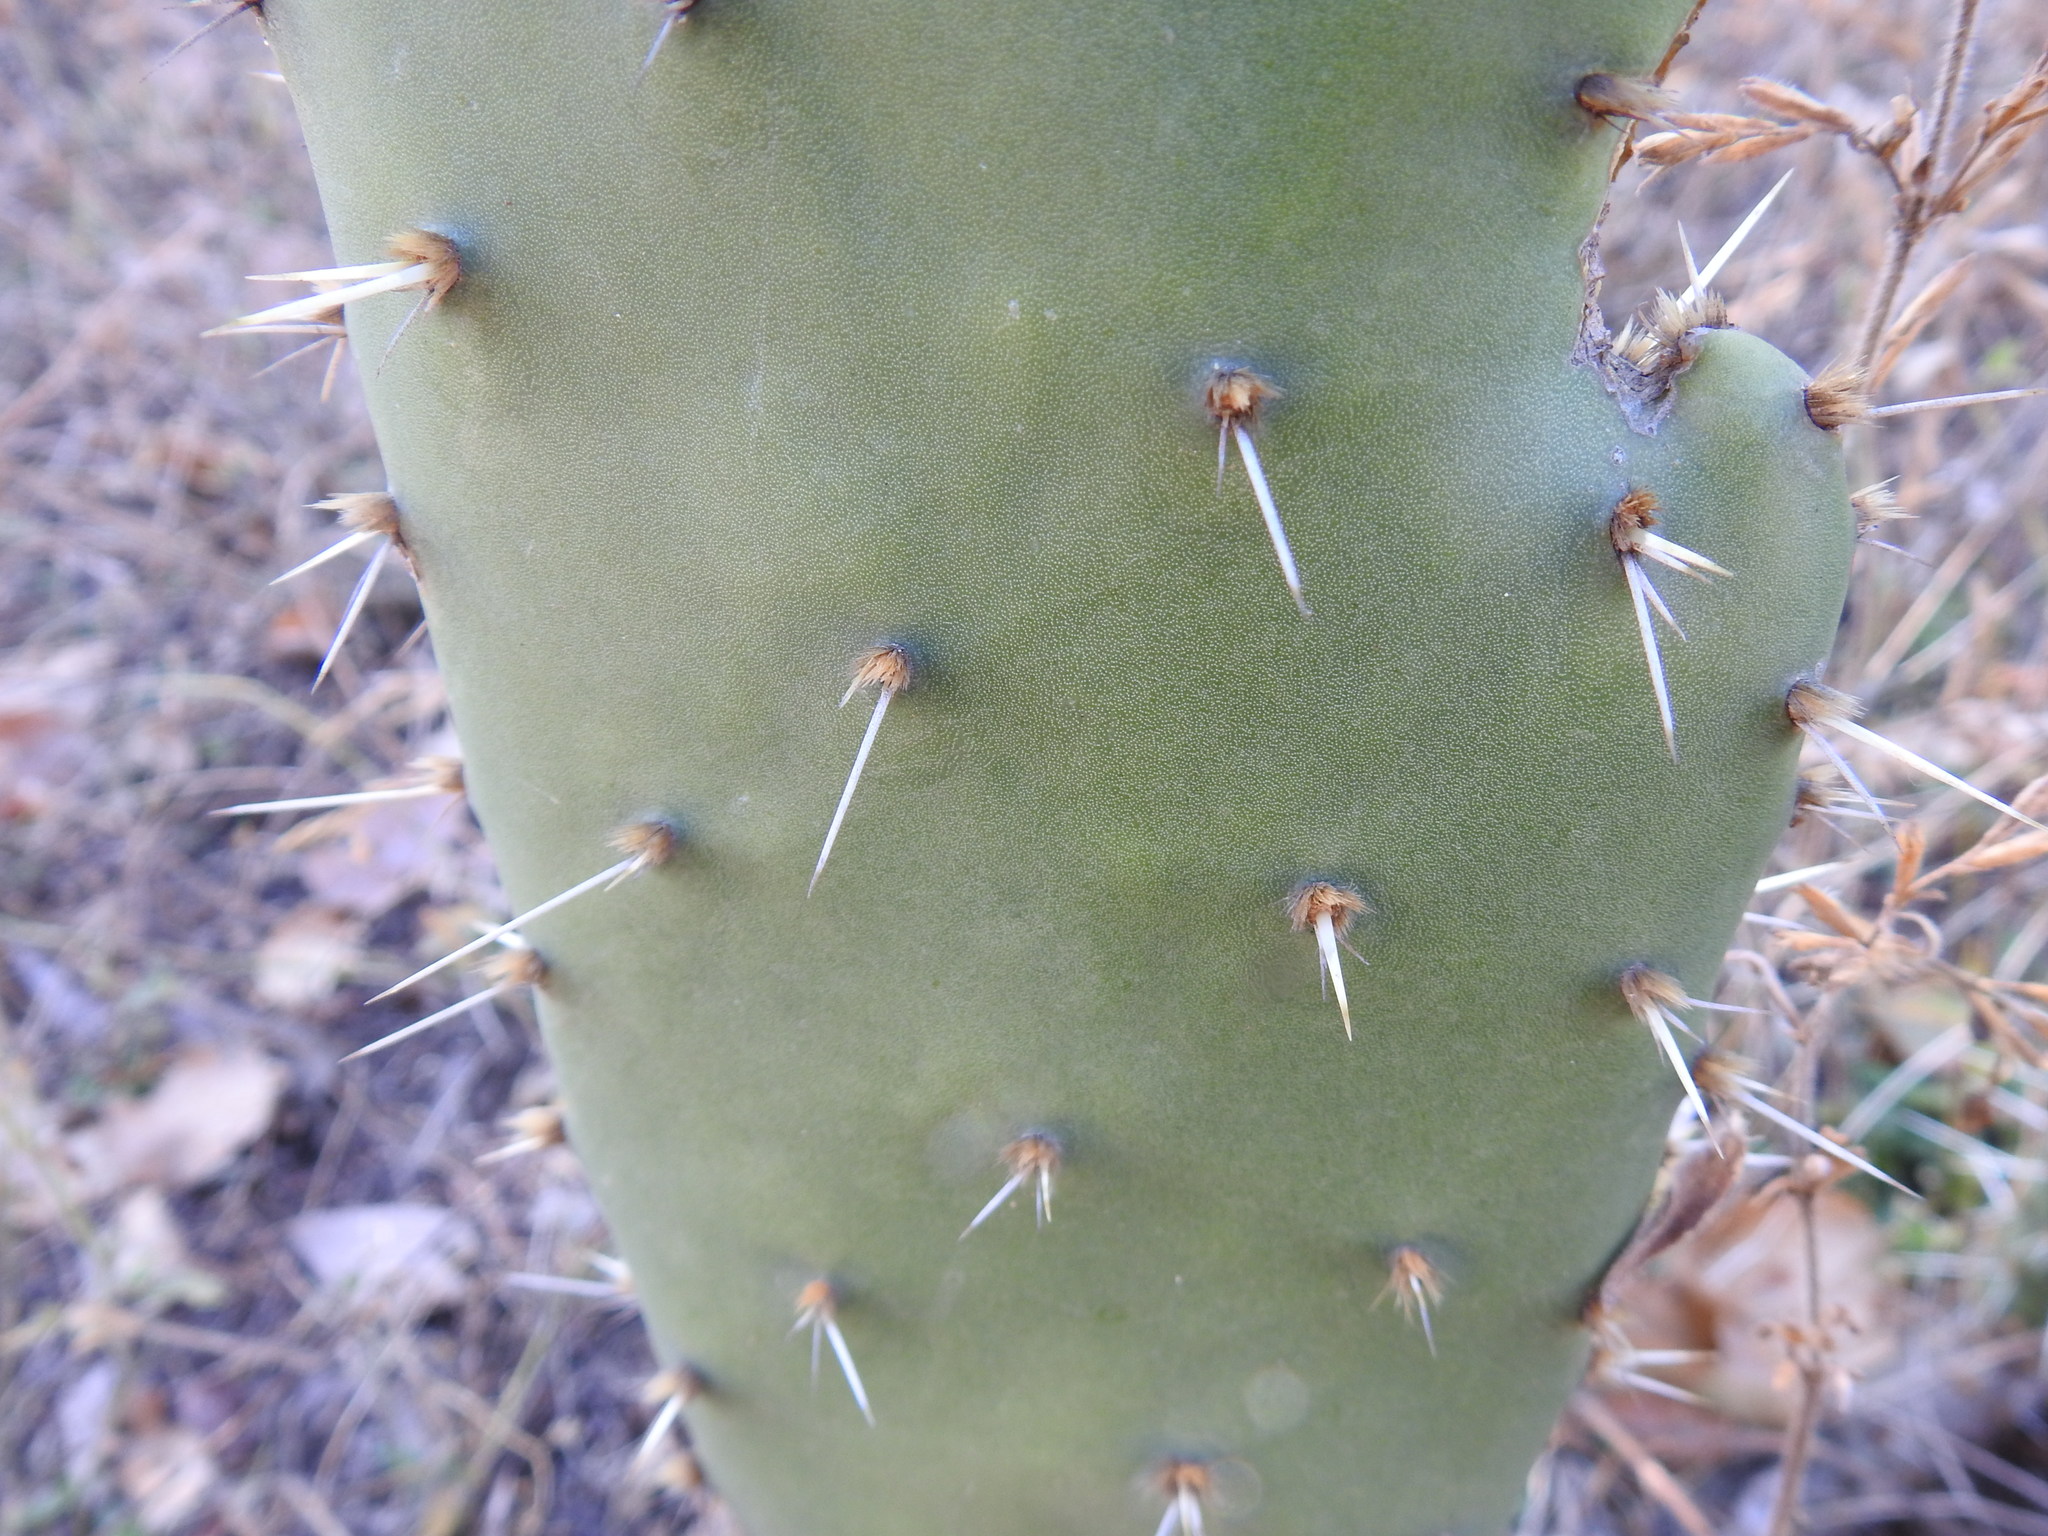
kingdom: Plantae
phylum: Tracheophyta
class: Magnoliopsida
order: Caryophyllales
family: Cactaceae
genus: Opuntia
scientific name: Opuntia ficus-indica
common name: Barbary fig
